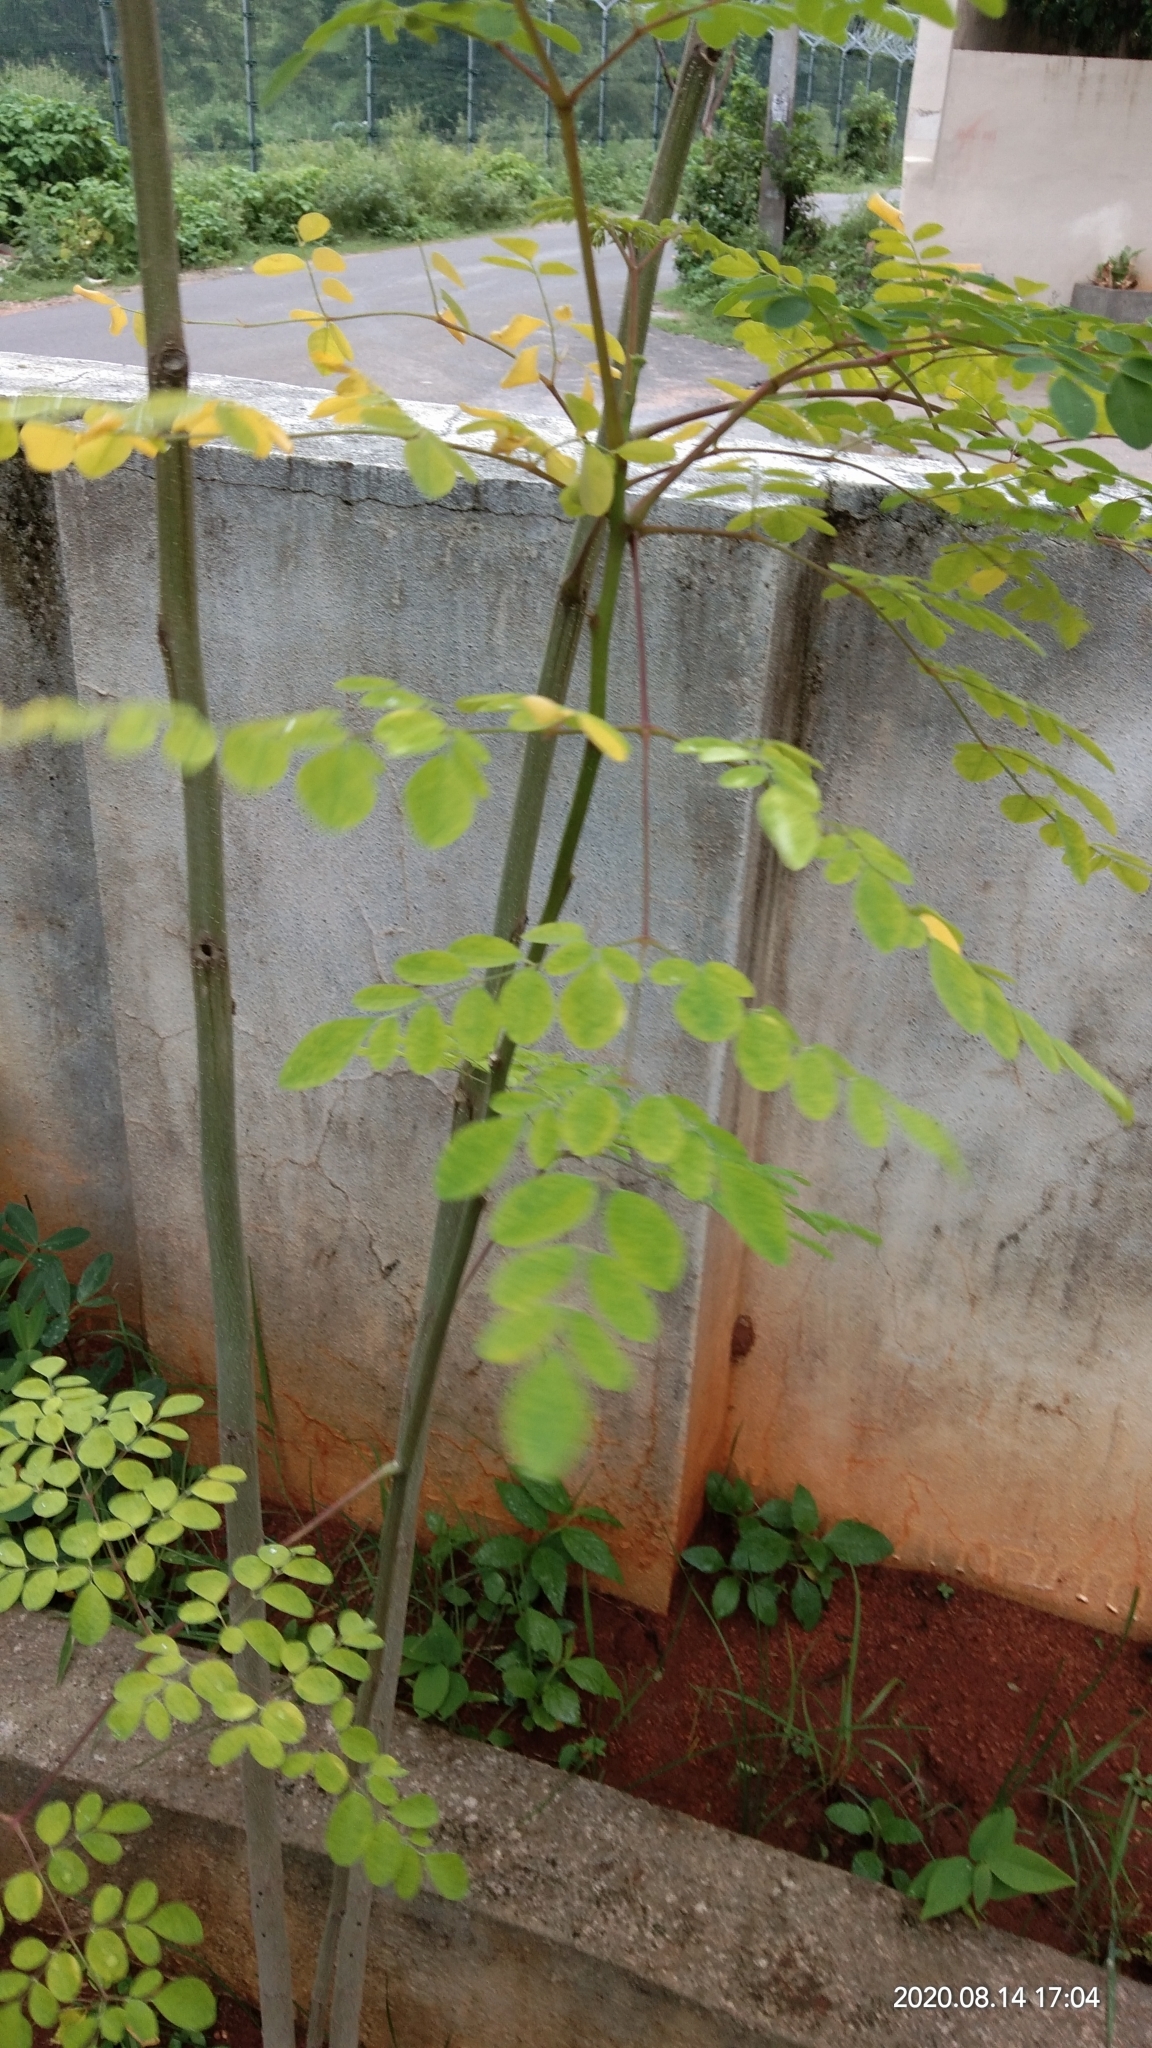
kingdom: Plantae
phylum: Tracheophyta
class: Magnoliopsida
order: Brassicales
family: Moringaceae
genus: Moringa
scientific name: Moringa oleifera
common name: Horseradish-tree
